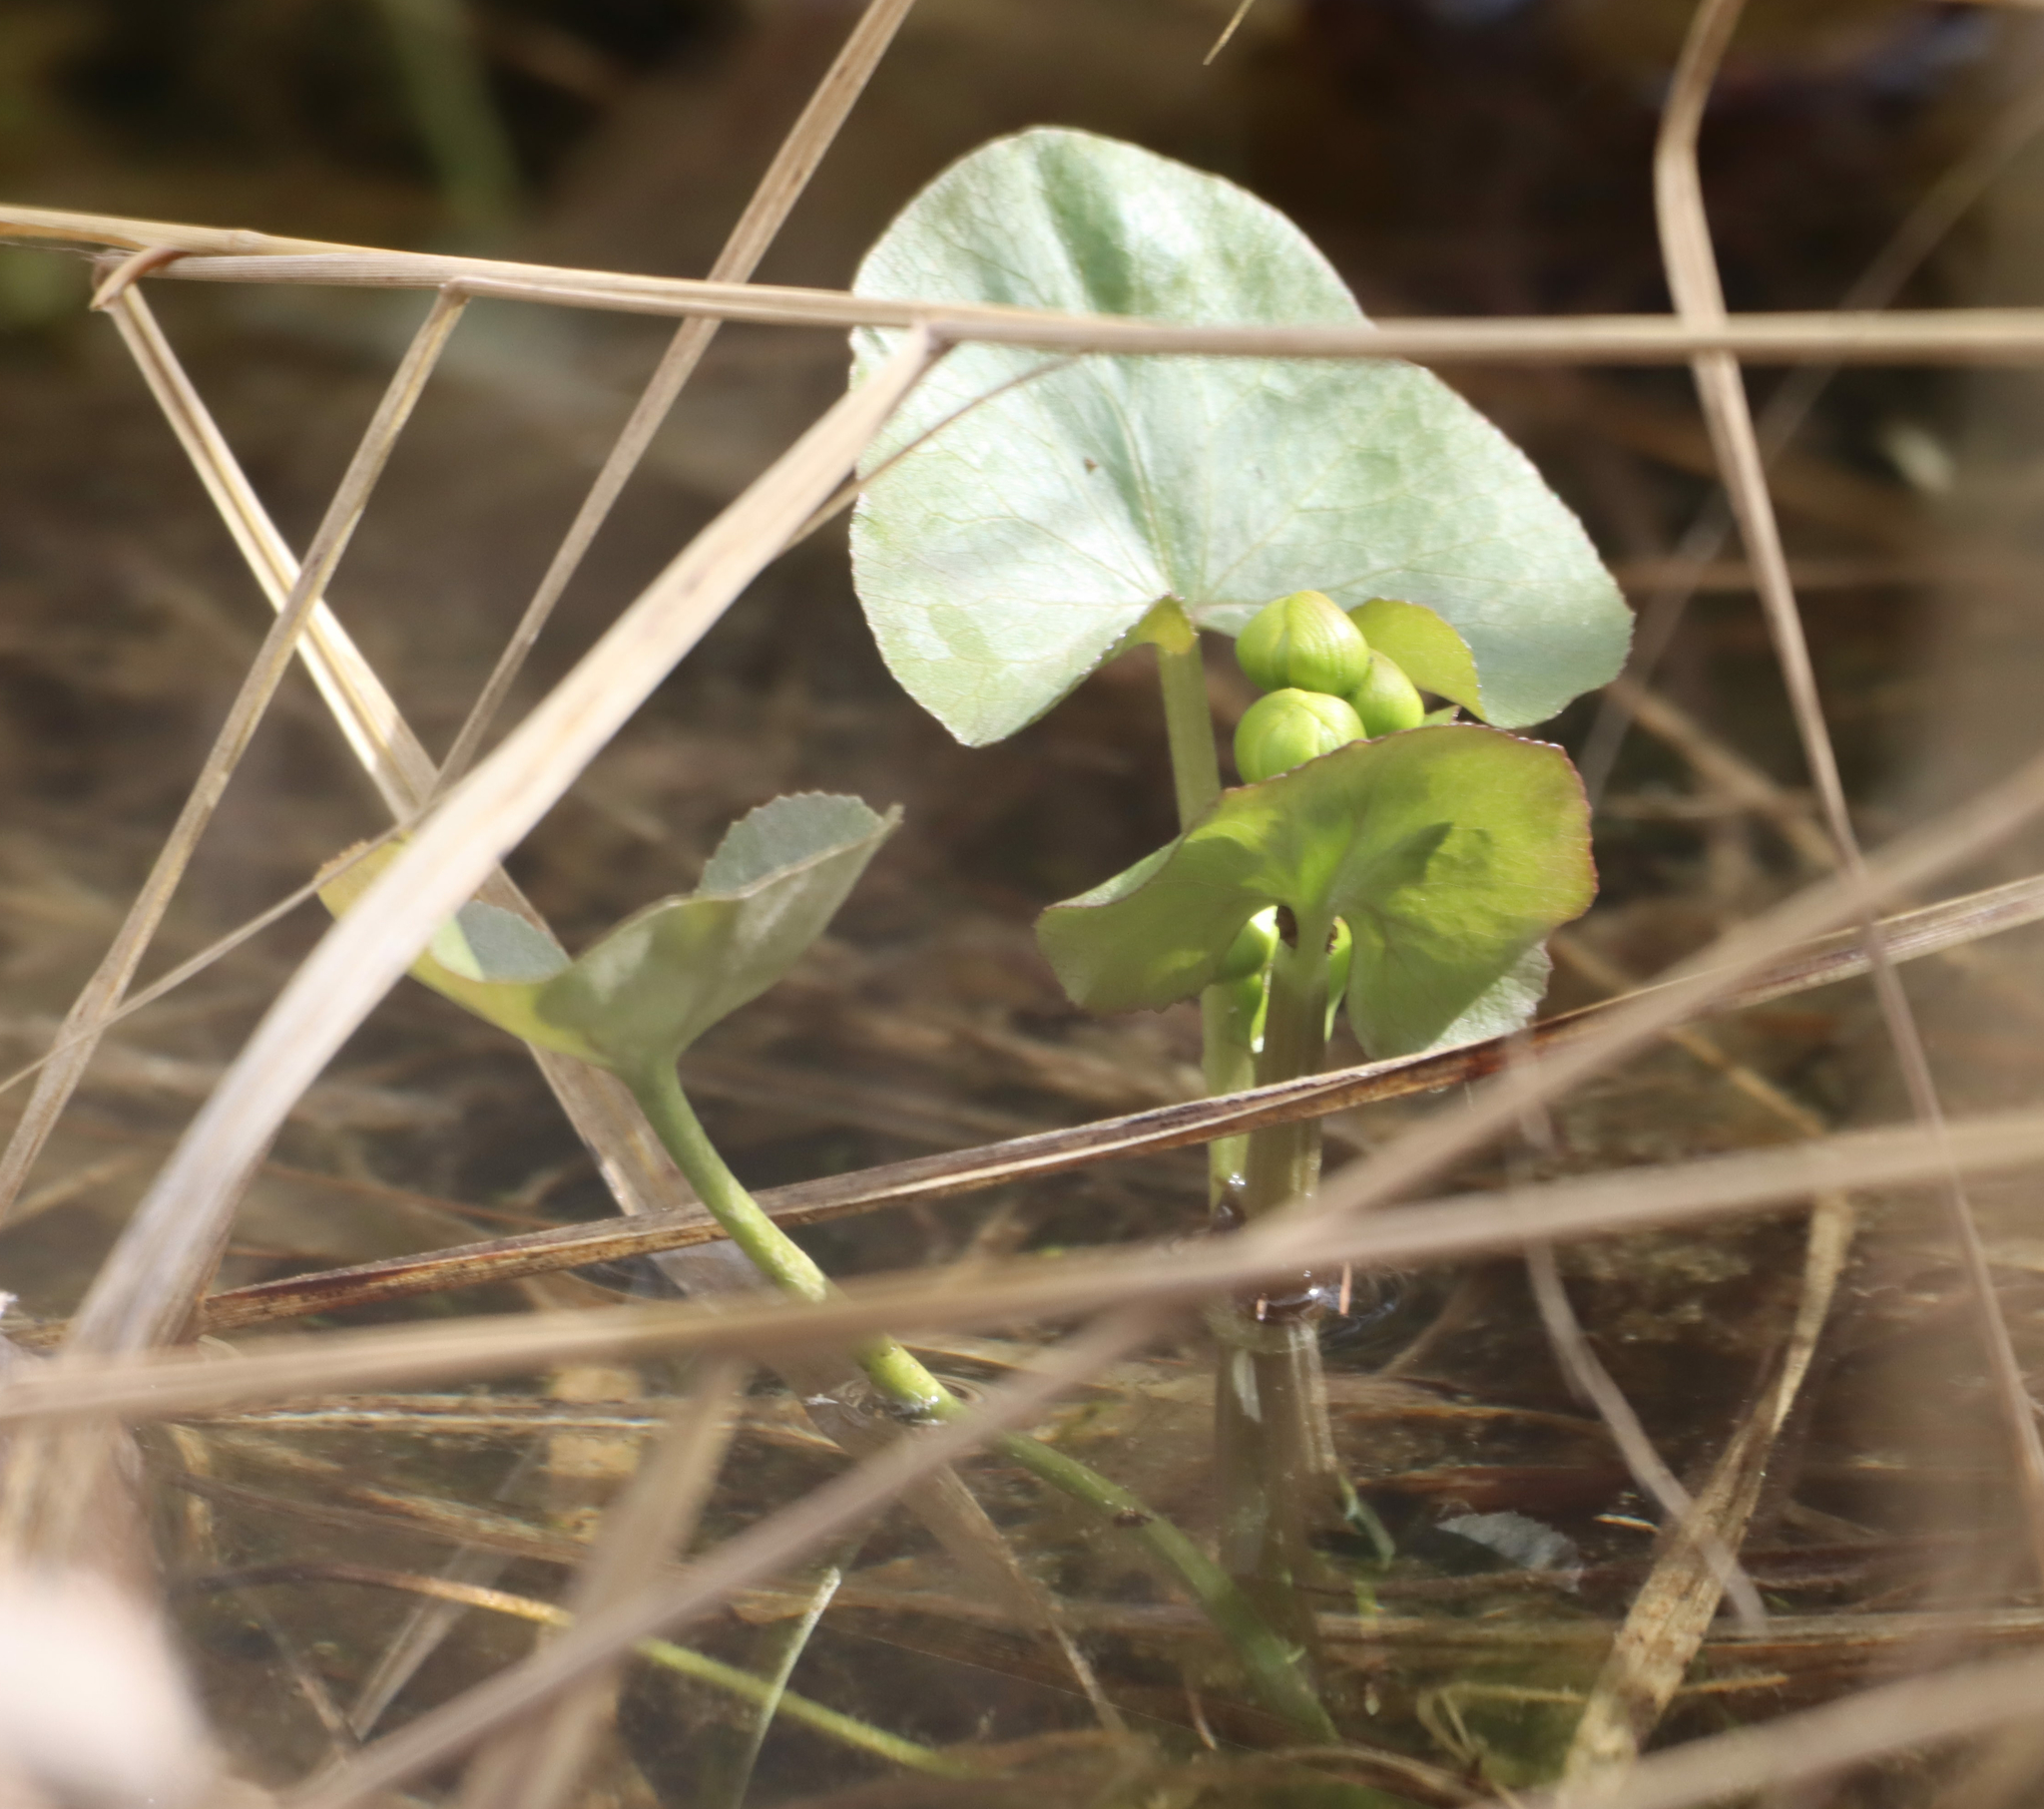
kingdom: Plantae
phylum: Tracheophyta
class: Magnoliopsida
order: Ranunculales
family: Ranunculaceae
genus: Caltha
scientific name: Caltha palustris
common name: Marsh marigold
